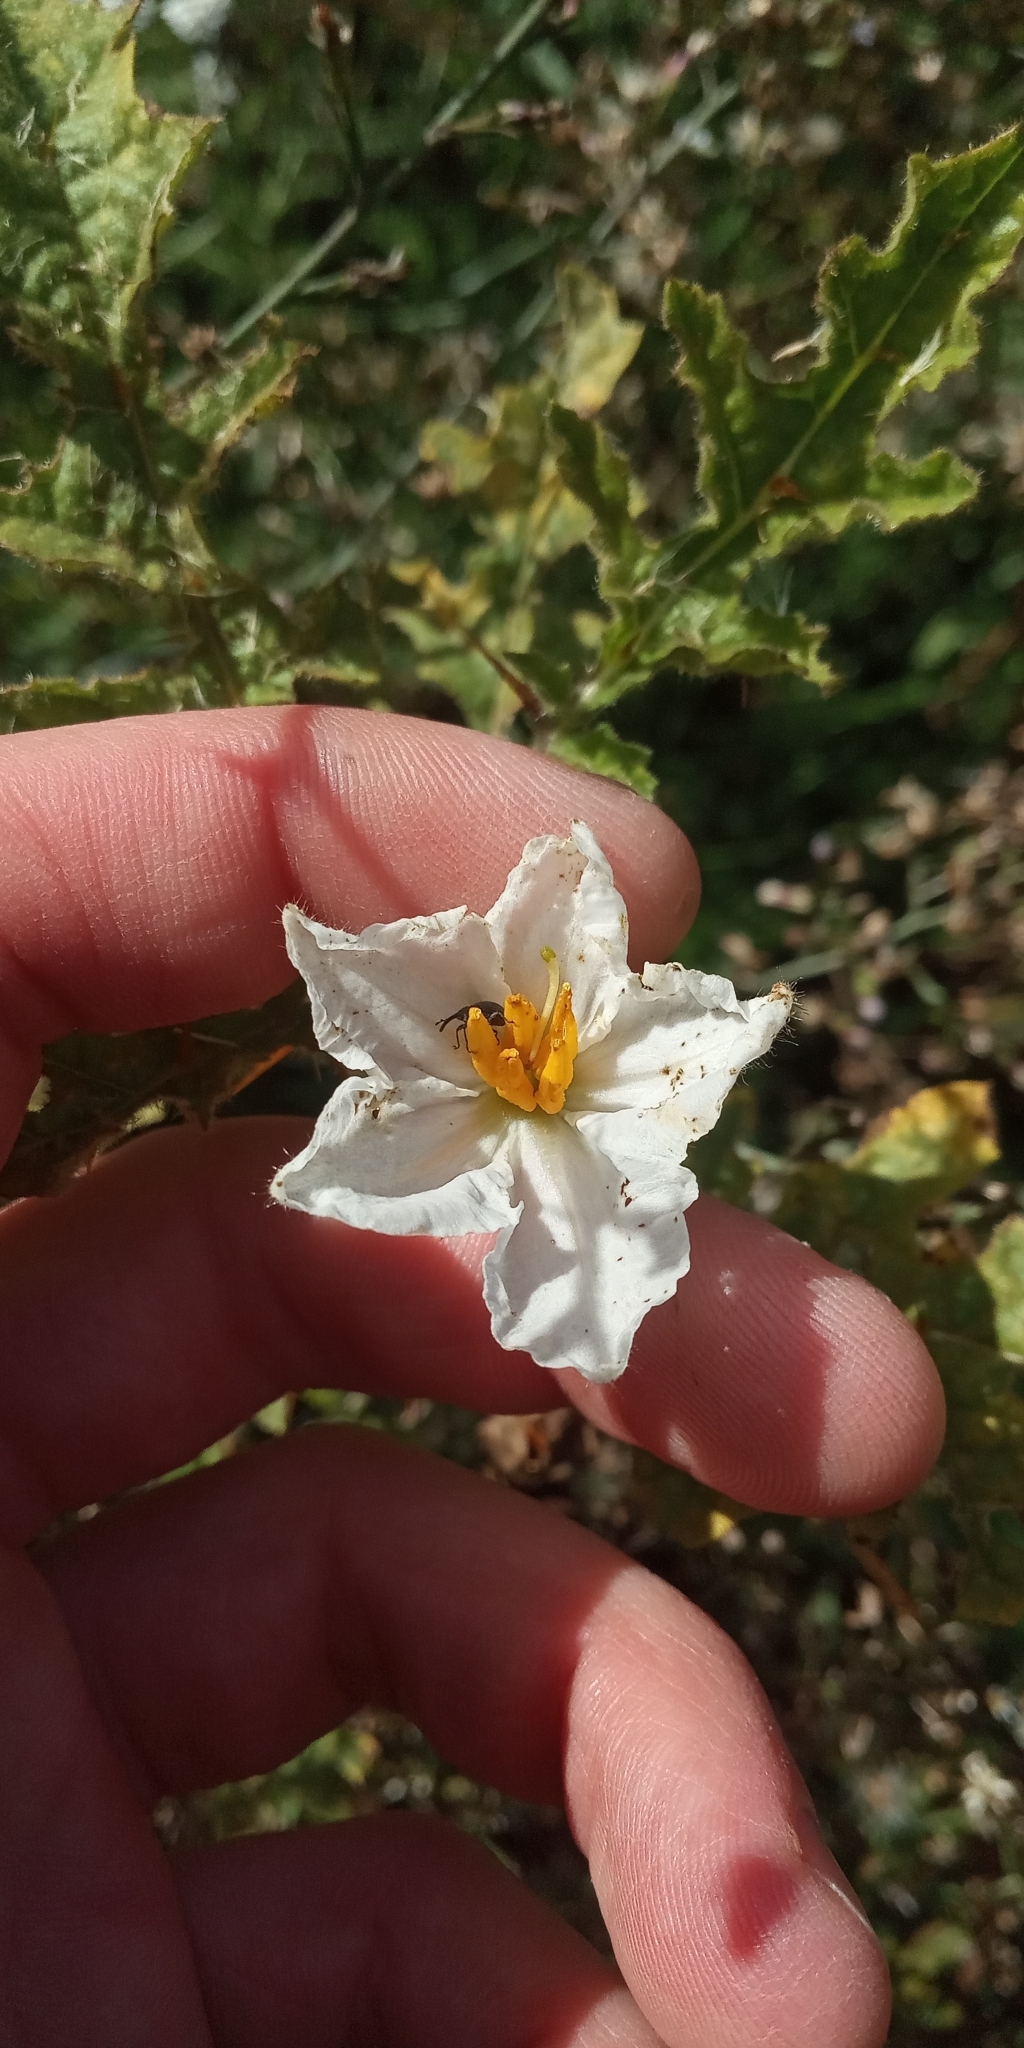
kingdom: Plantae
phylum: Tracheophyta
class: Magnoliopsida
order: Solanales
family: Solanaceae
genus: Solanum
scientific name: Solanum sisymbriifolium
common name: Red buffalo-bur
